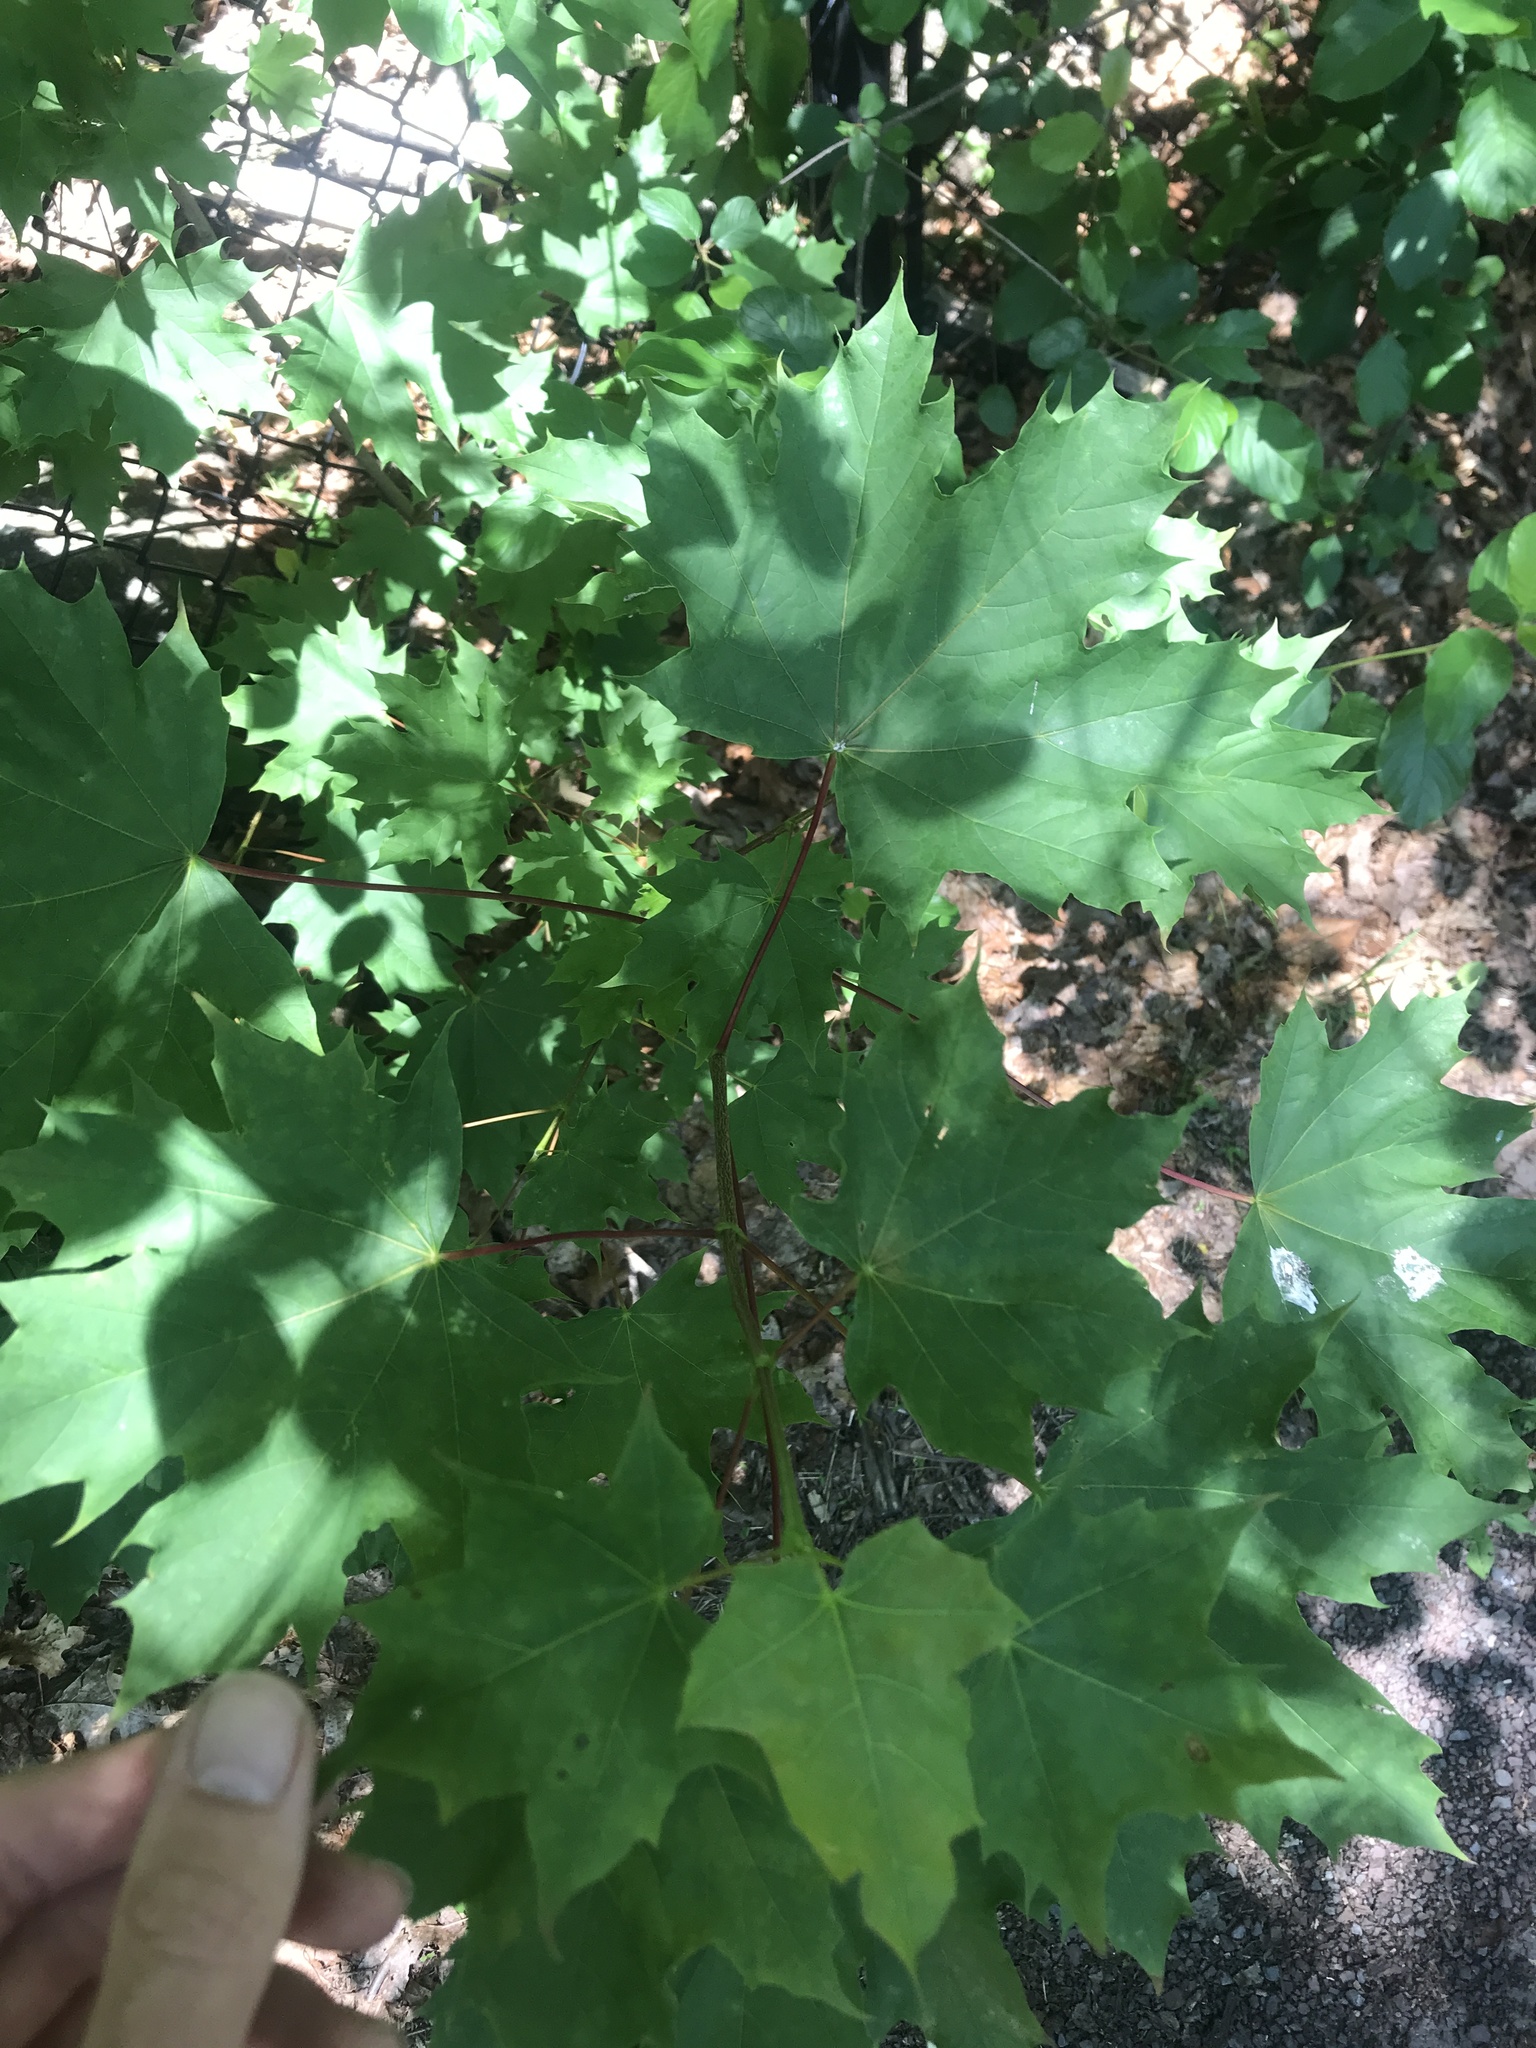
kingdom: Plantae
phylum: Tracheophyta
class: Magnoliopsida
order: Sapindales
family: Sapindaceae
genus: Acer
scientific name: Acer platanoides
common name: Norway maple
